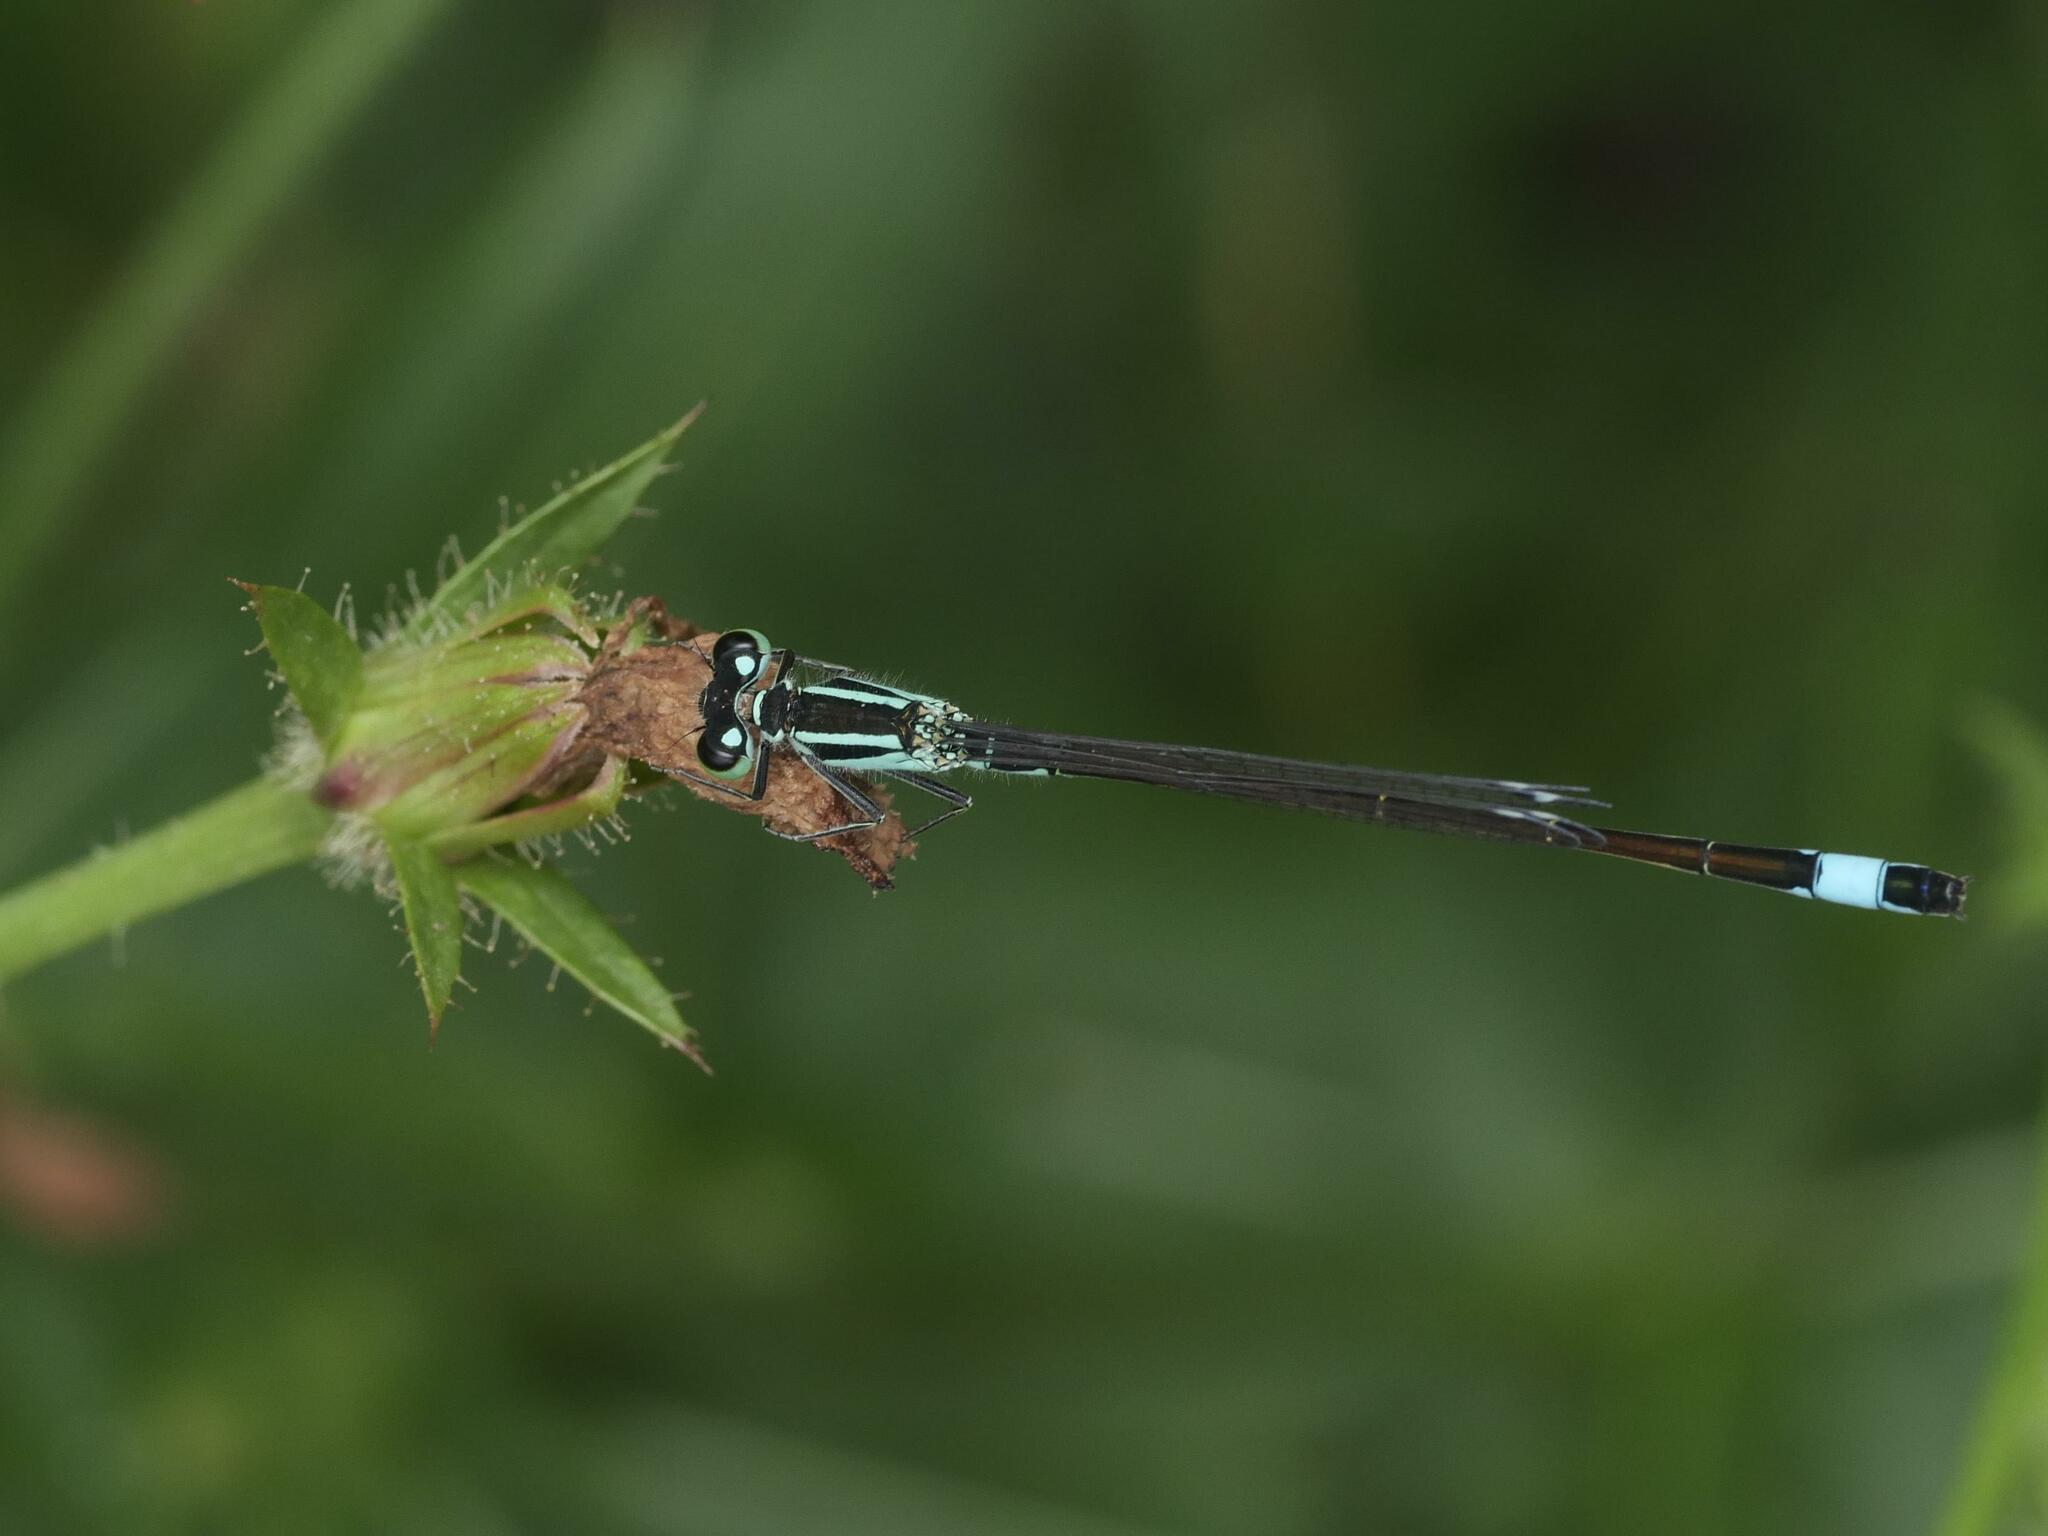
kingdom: Animalia
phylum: Arthropoda
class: Insecta
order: Odonata
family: Coenagrionidae
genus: Ischnura
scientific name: Ischnura elegans
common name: Blue-tailed damselfly
